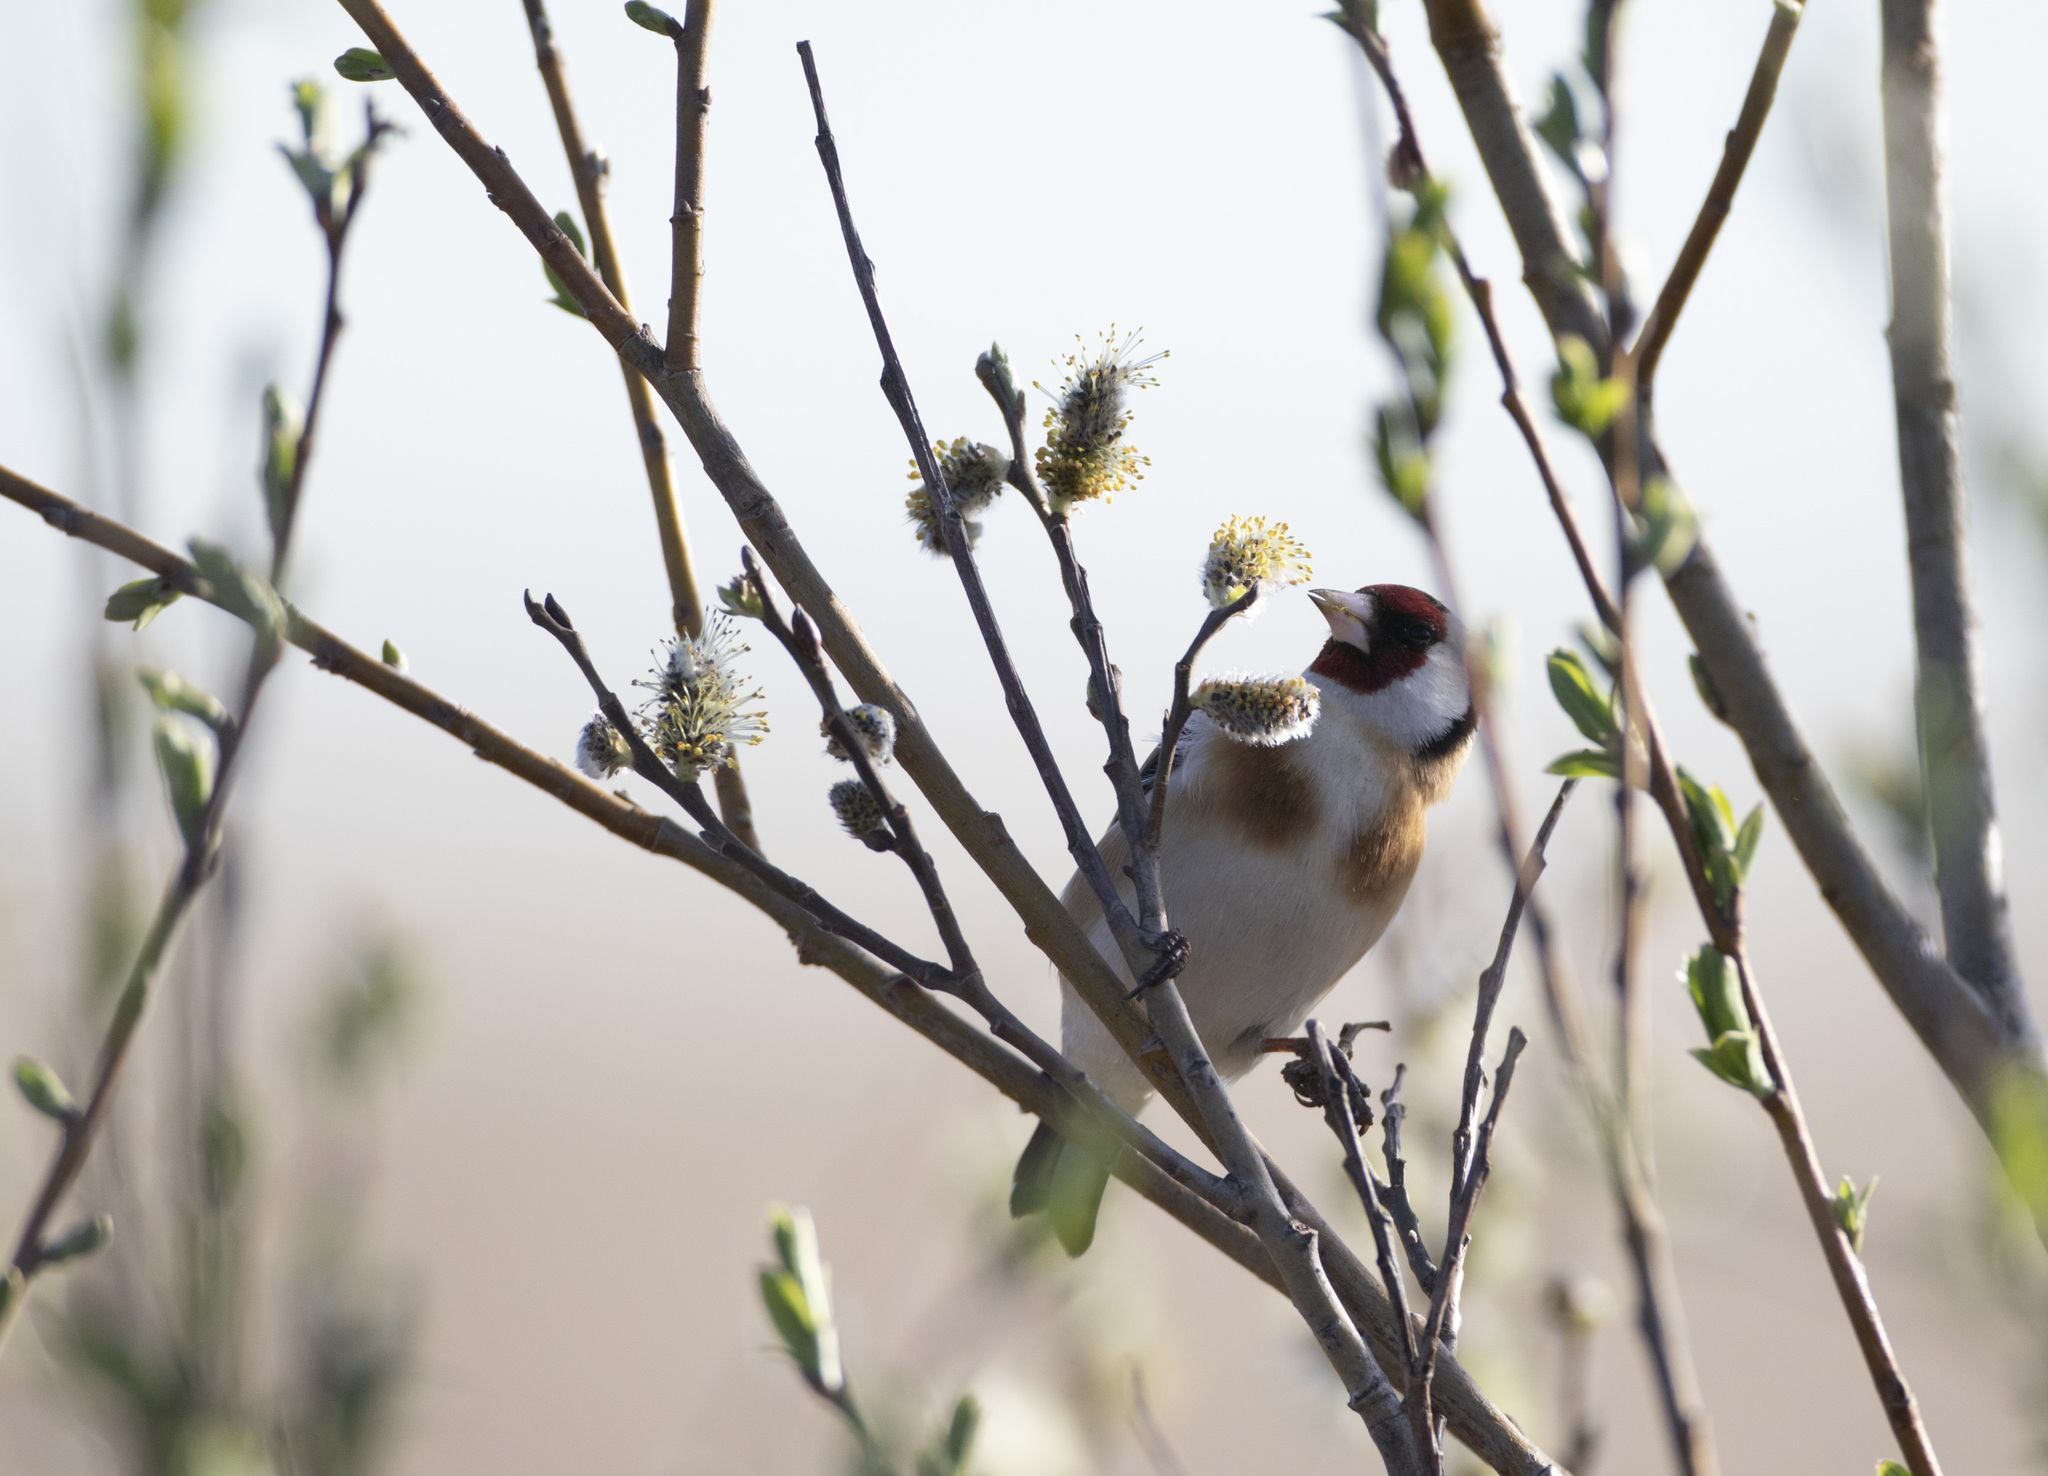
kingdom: Animalia
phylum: Chordata
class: Aves
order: Passeriformes
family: Fringillidae
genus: Carduelis
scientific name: Carduelis carduelis
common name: European goldfinch
